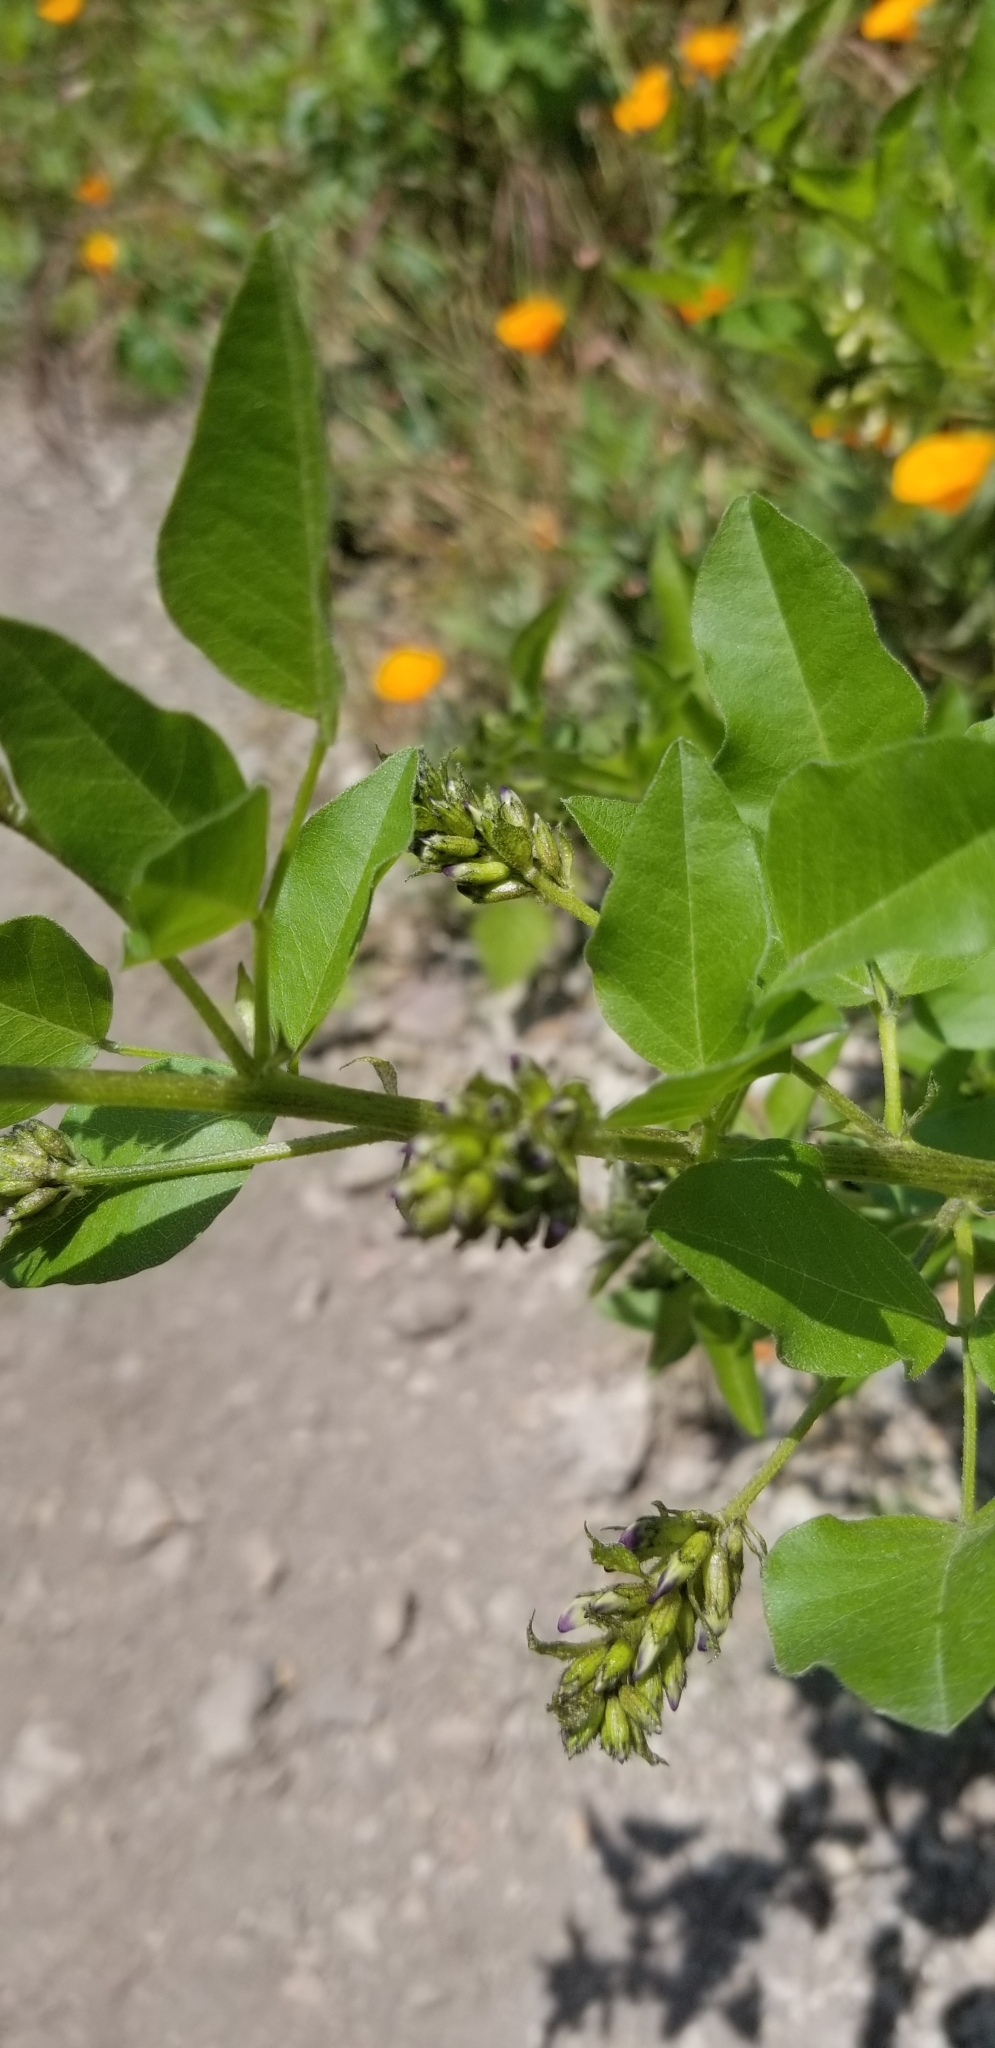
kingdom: Plantae
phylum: Tracheophyta
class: Magnoliopsida
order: Fabales
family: Fabaceae
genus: Rupertia
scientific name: Rupertia physodes
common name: California-tea
